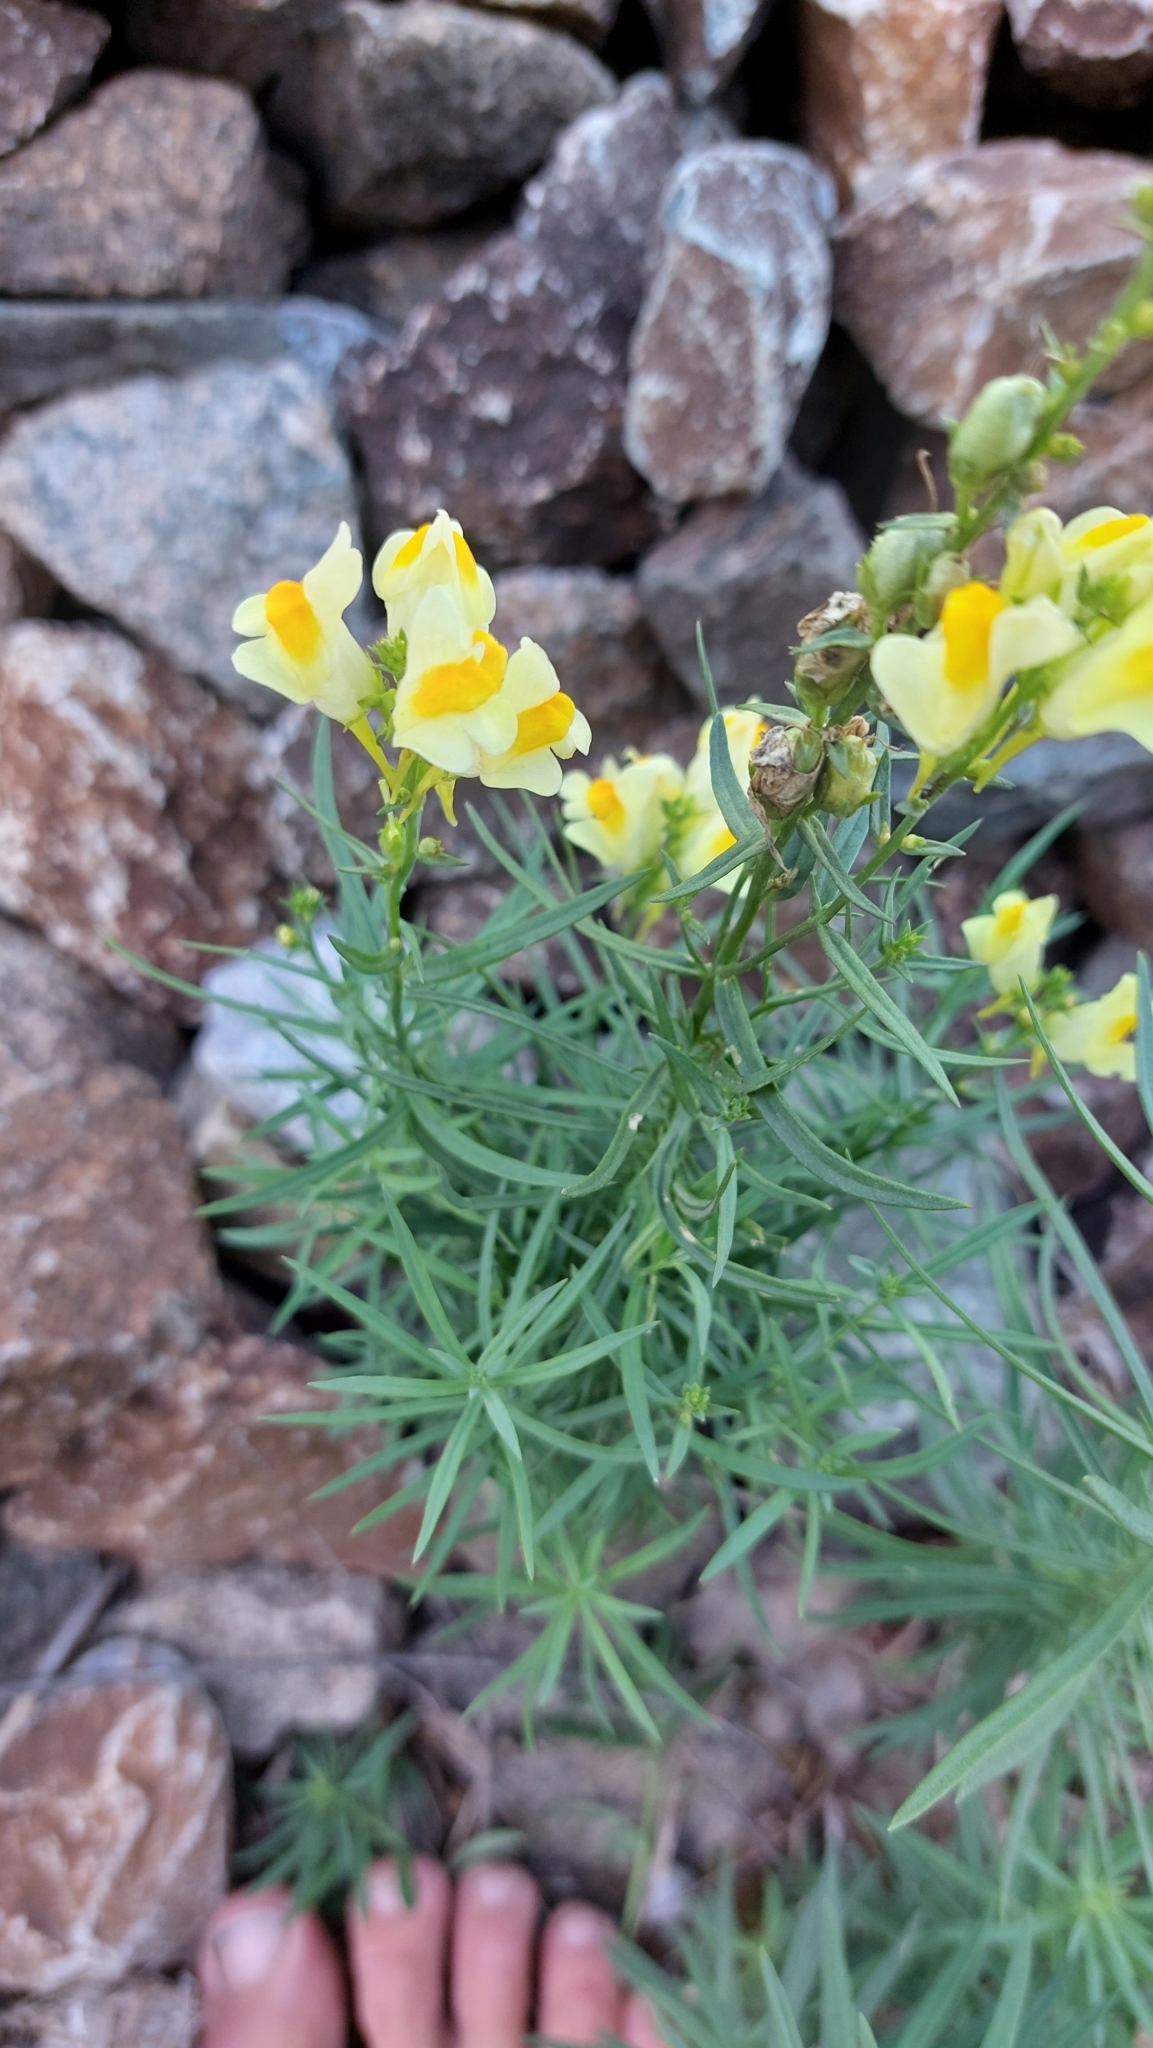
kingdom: Plantae
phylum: Tracheophyta
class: Magnoliopsida
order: Lamiales
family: Plantaginaceae
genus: Linaria
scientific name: Linaria vulgaris
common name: Butter and eggs
